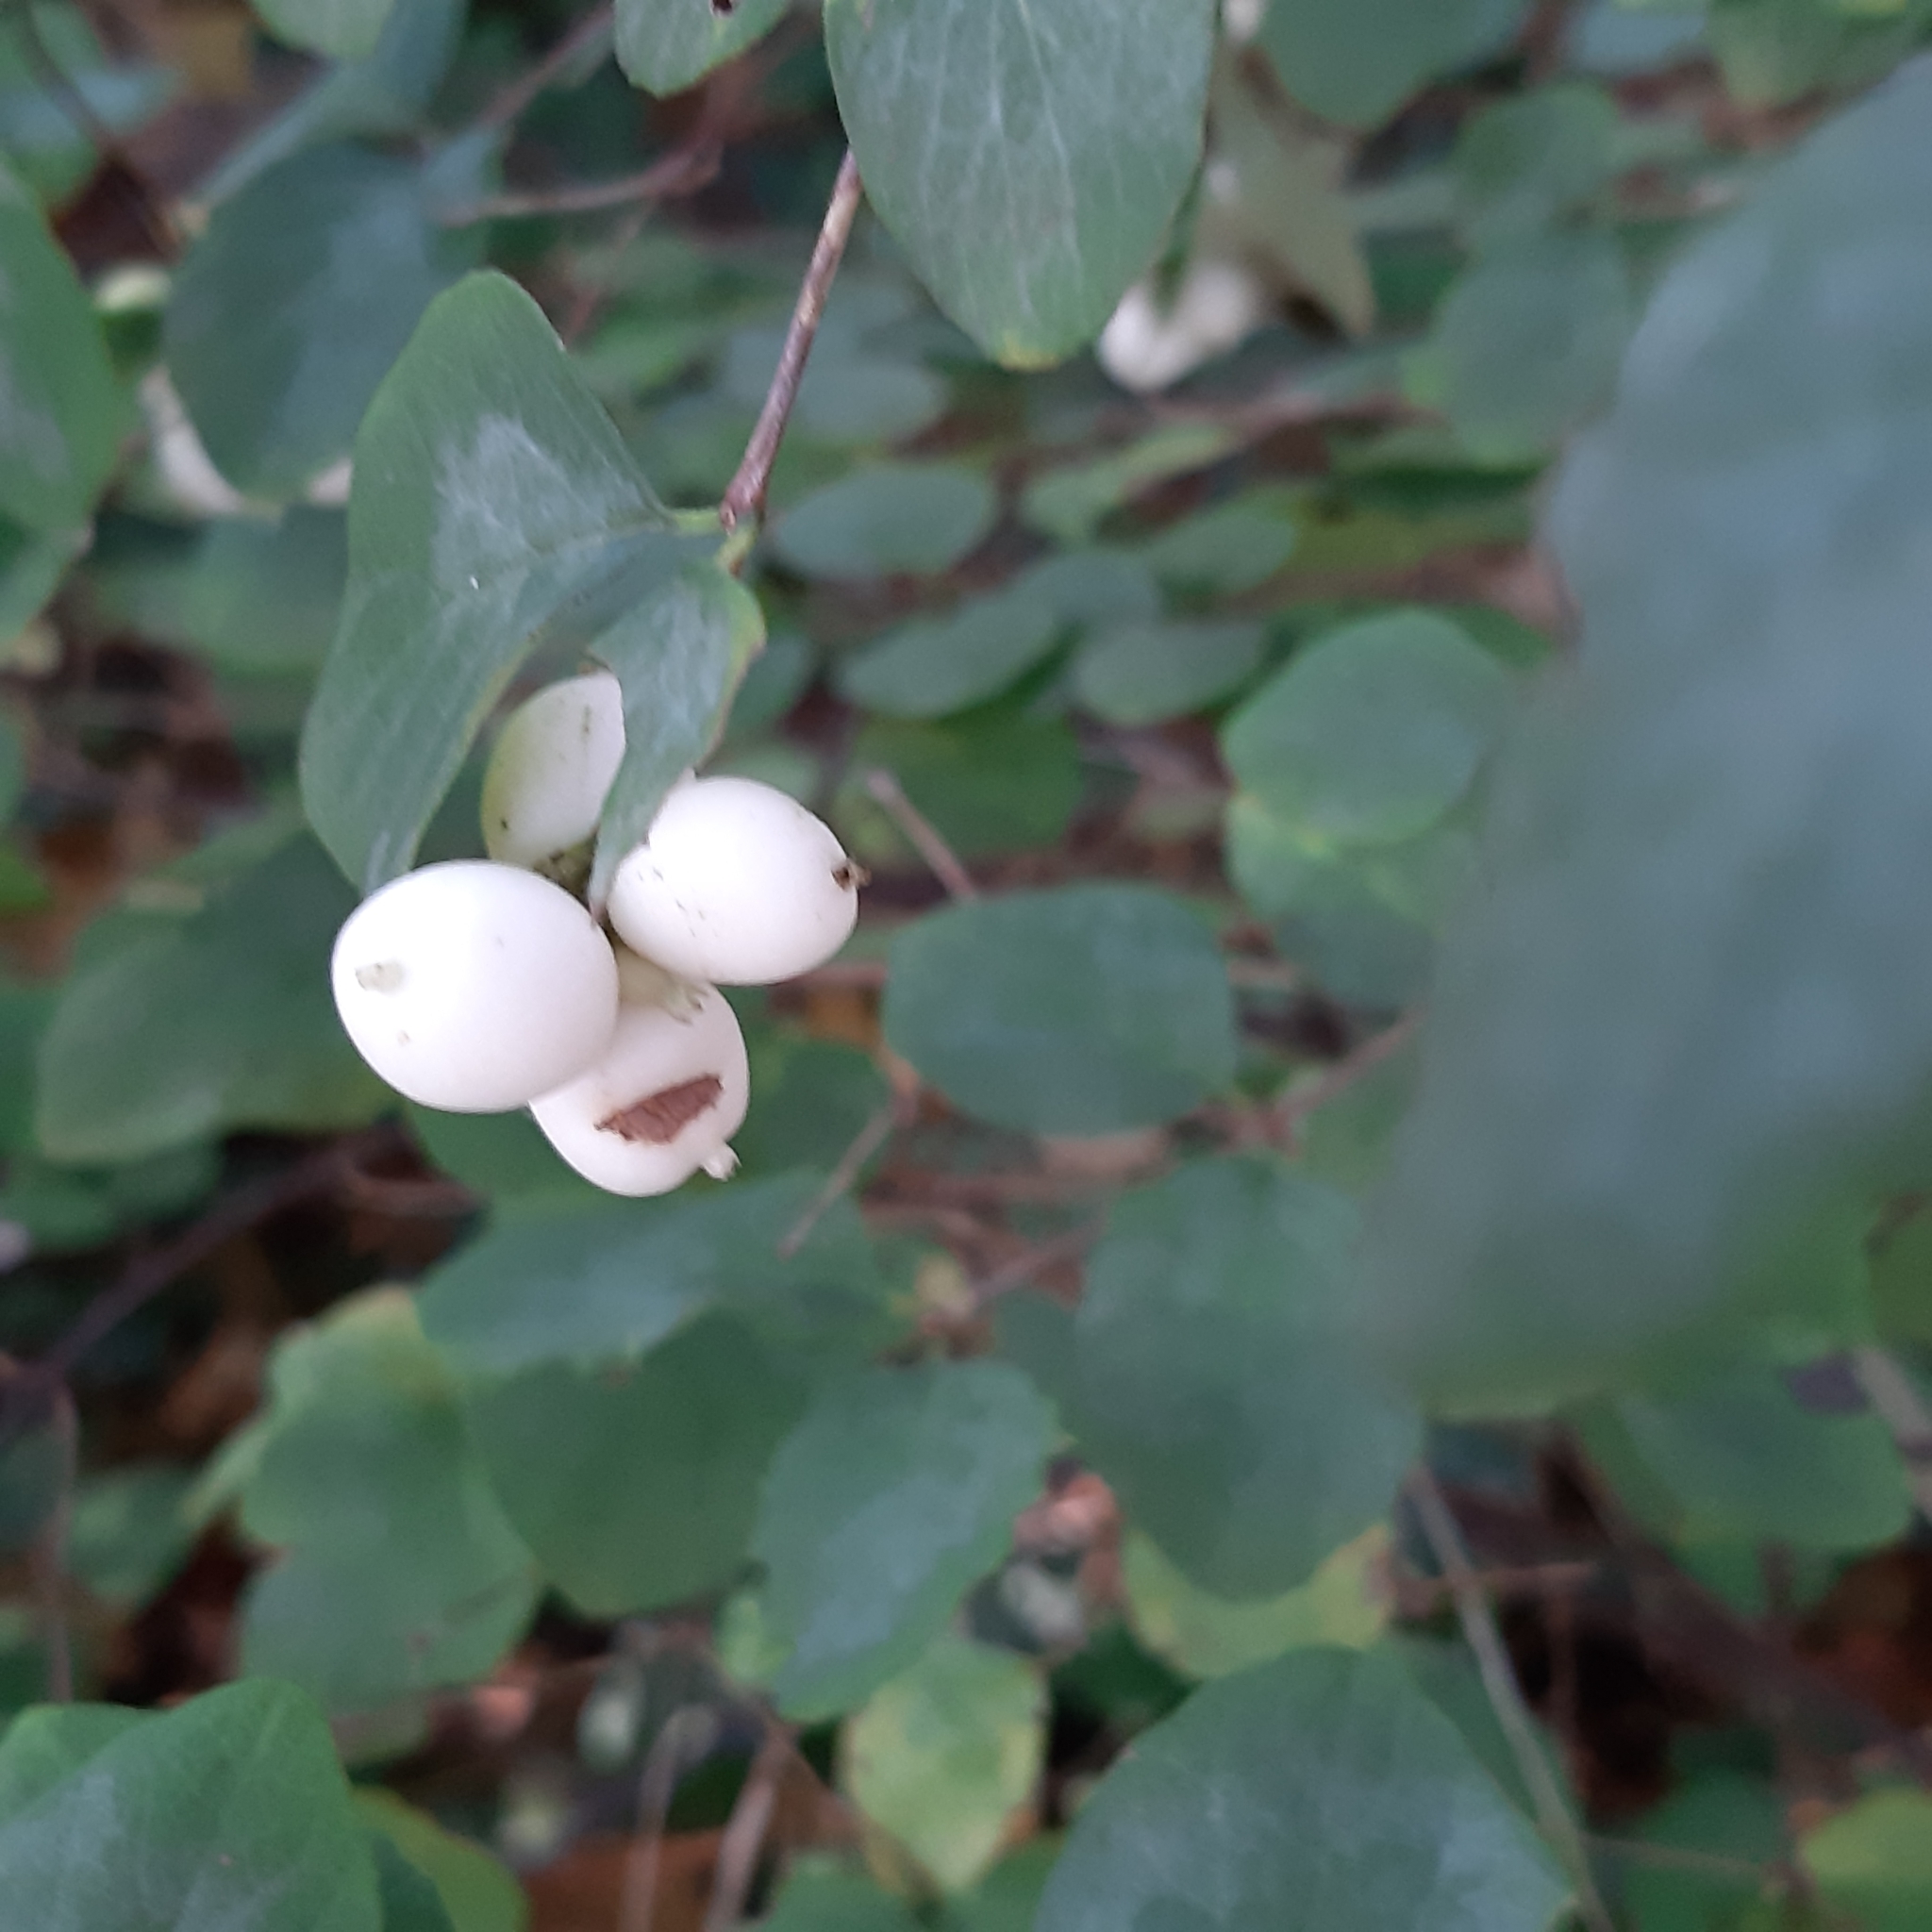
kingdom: Plantae
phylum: Tracheophyta
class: Magnoliopsida
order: Dipsacales
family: Caprifoliaceae
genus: Symphoricarpos
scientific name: Symphoricarpos albus
